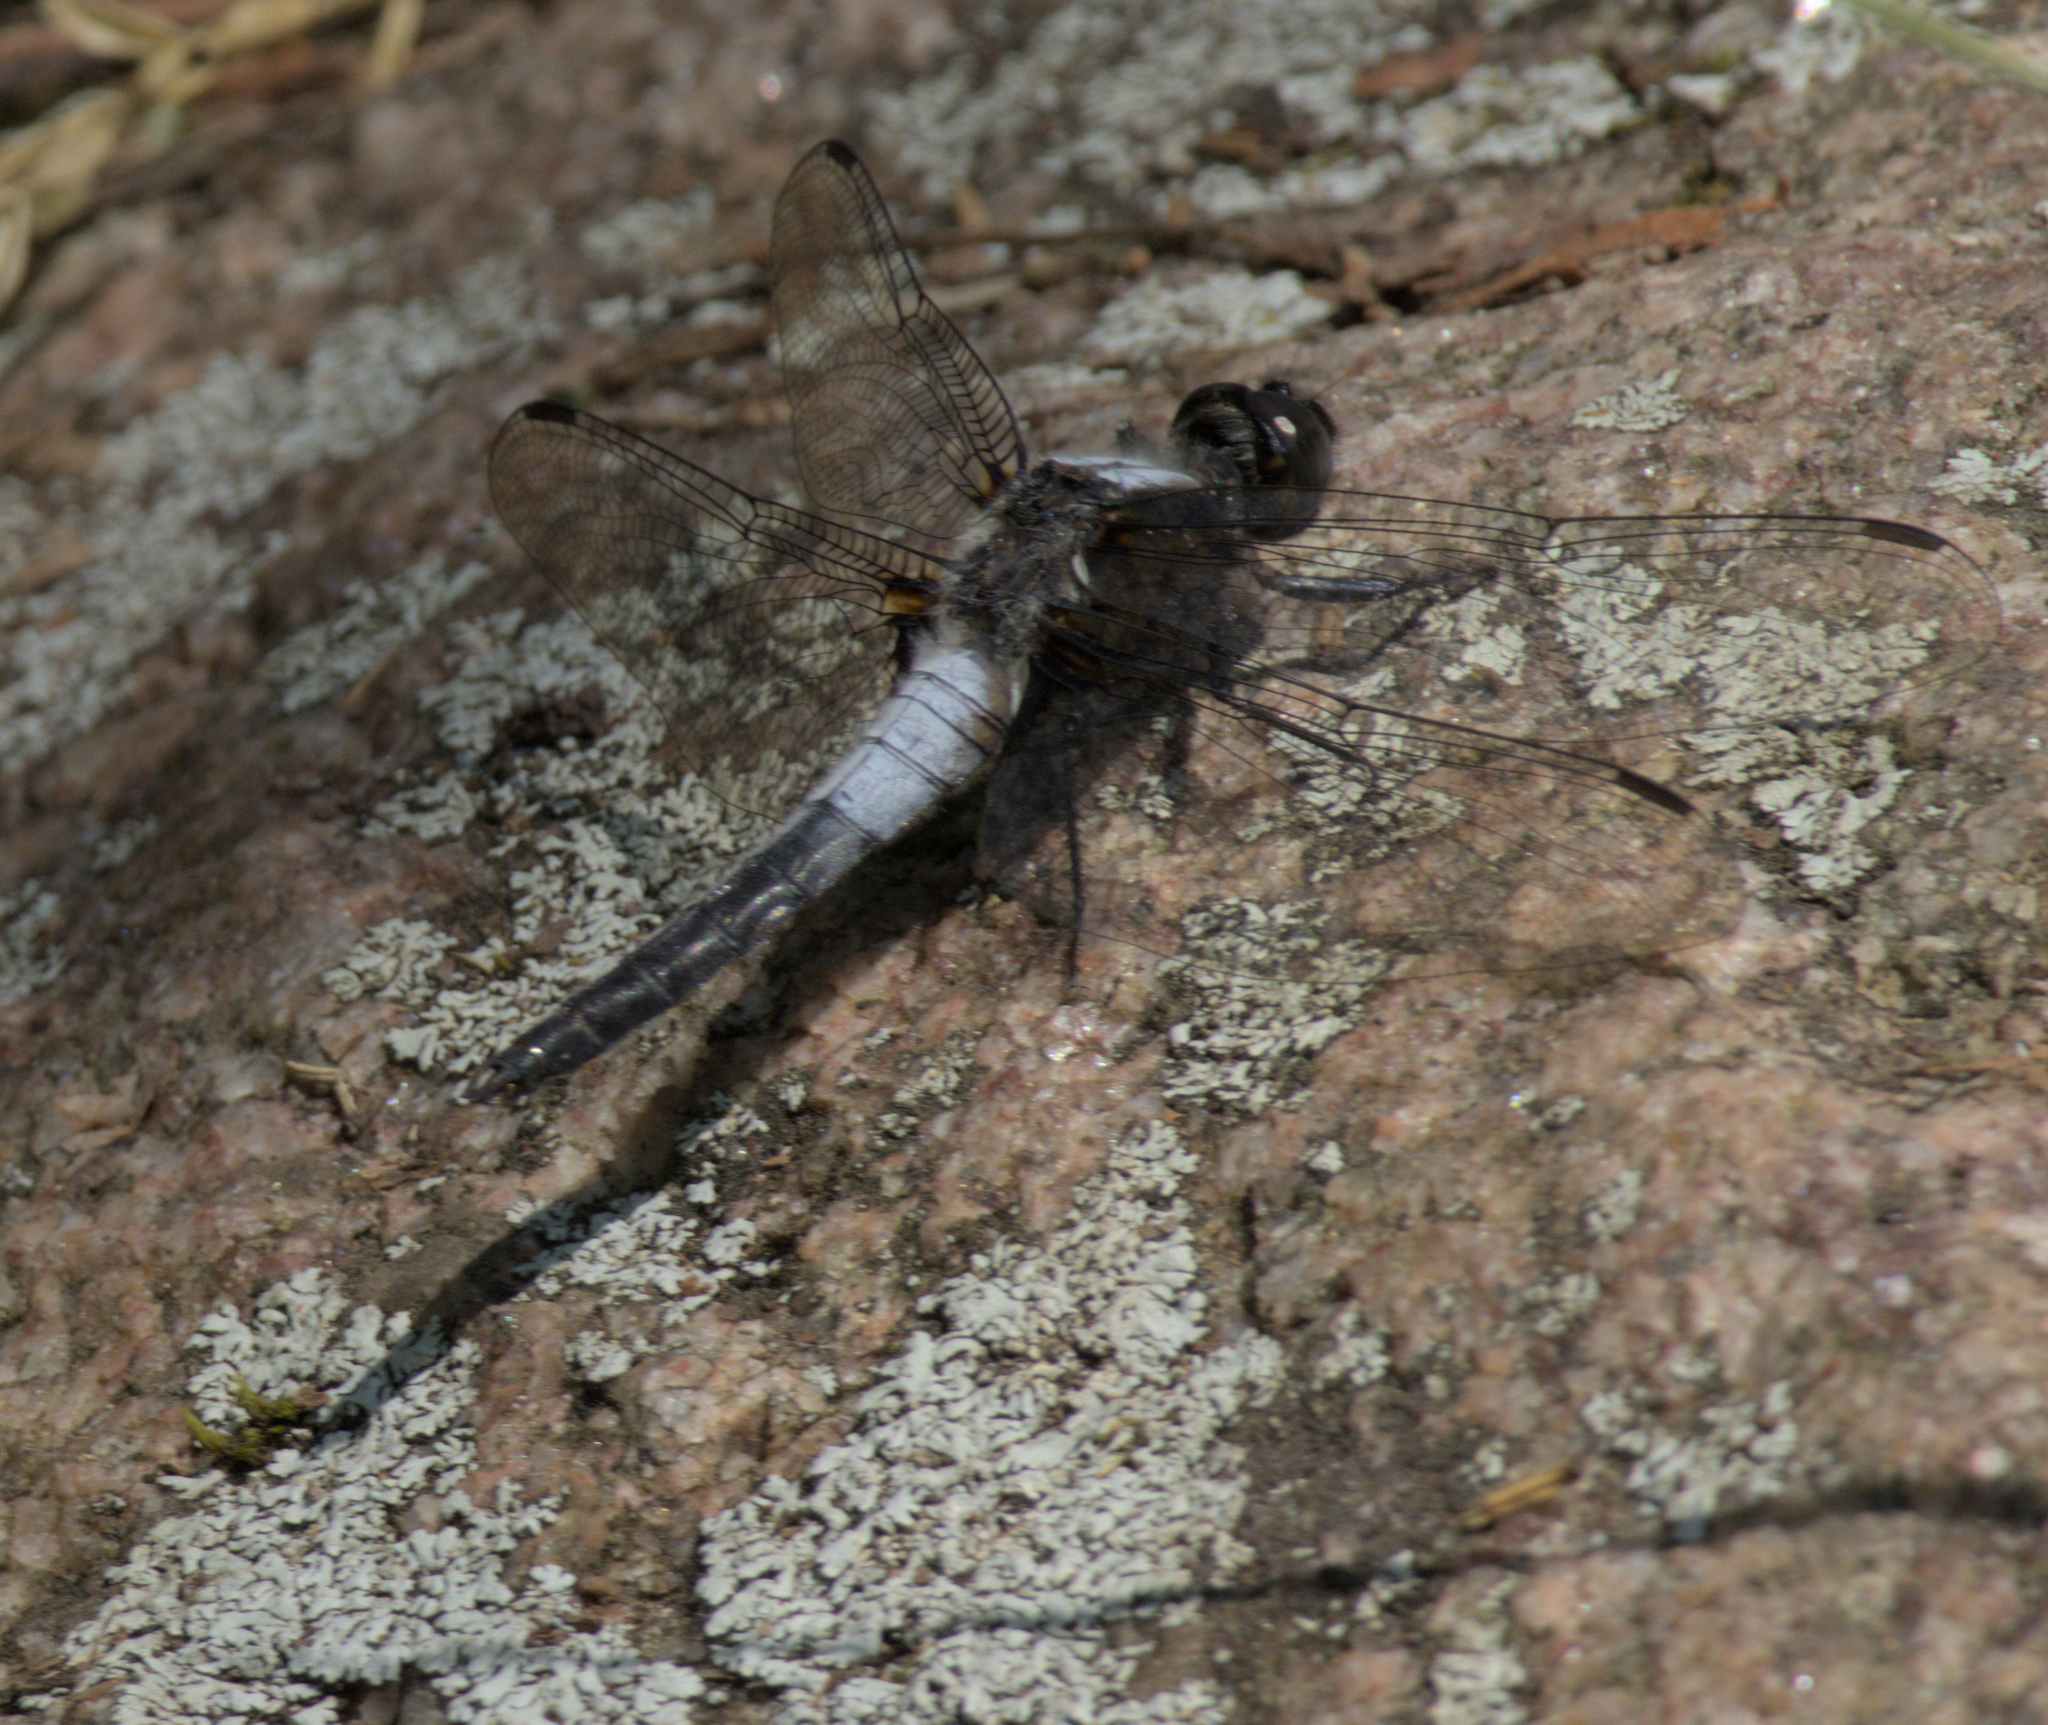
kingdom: Animalia
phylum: Arthropoda
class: Insecta
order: Odonata
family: Libellulidae
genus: Ladona
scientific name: Ladona julia
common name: Chalk-fronted corporal
